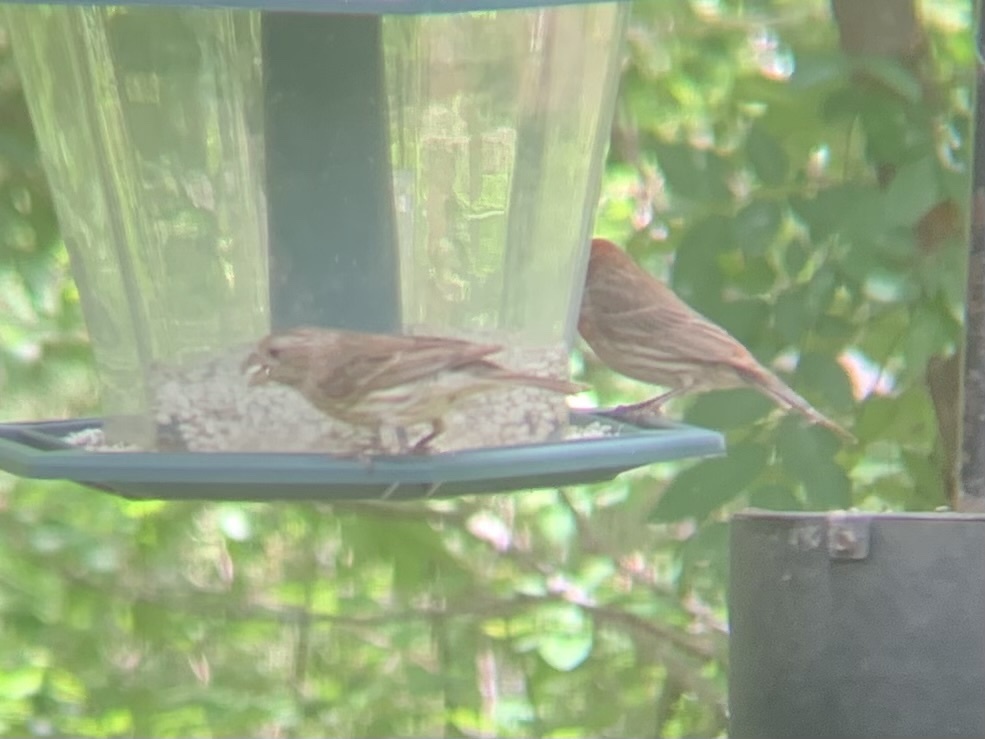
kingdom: Animalia
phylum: Chordata
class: Aves
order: Passeriformes
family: Fringillidae
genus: Haemorhous
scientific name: Haemorhous mexicanus
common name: House finch
